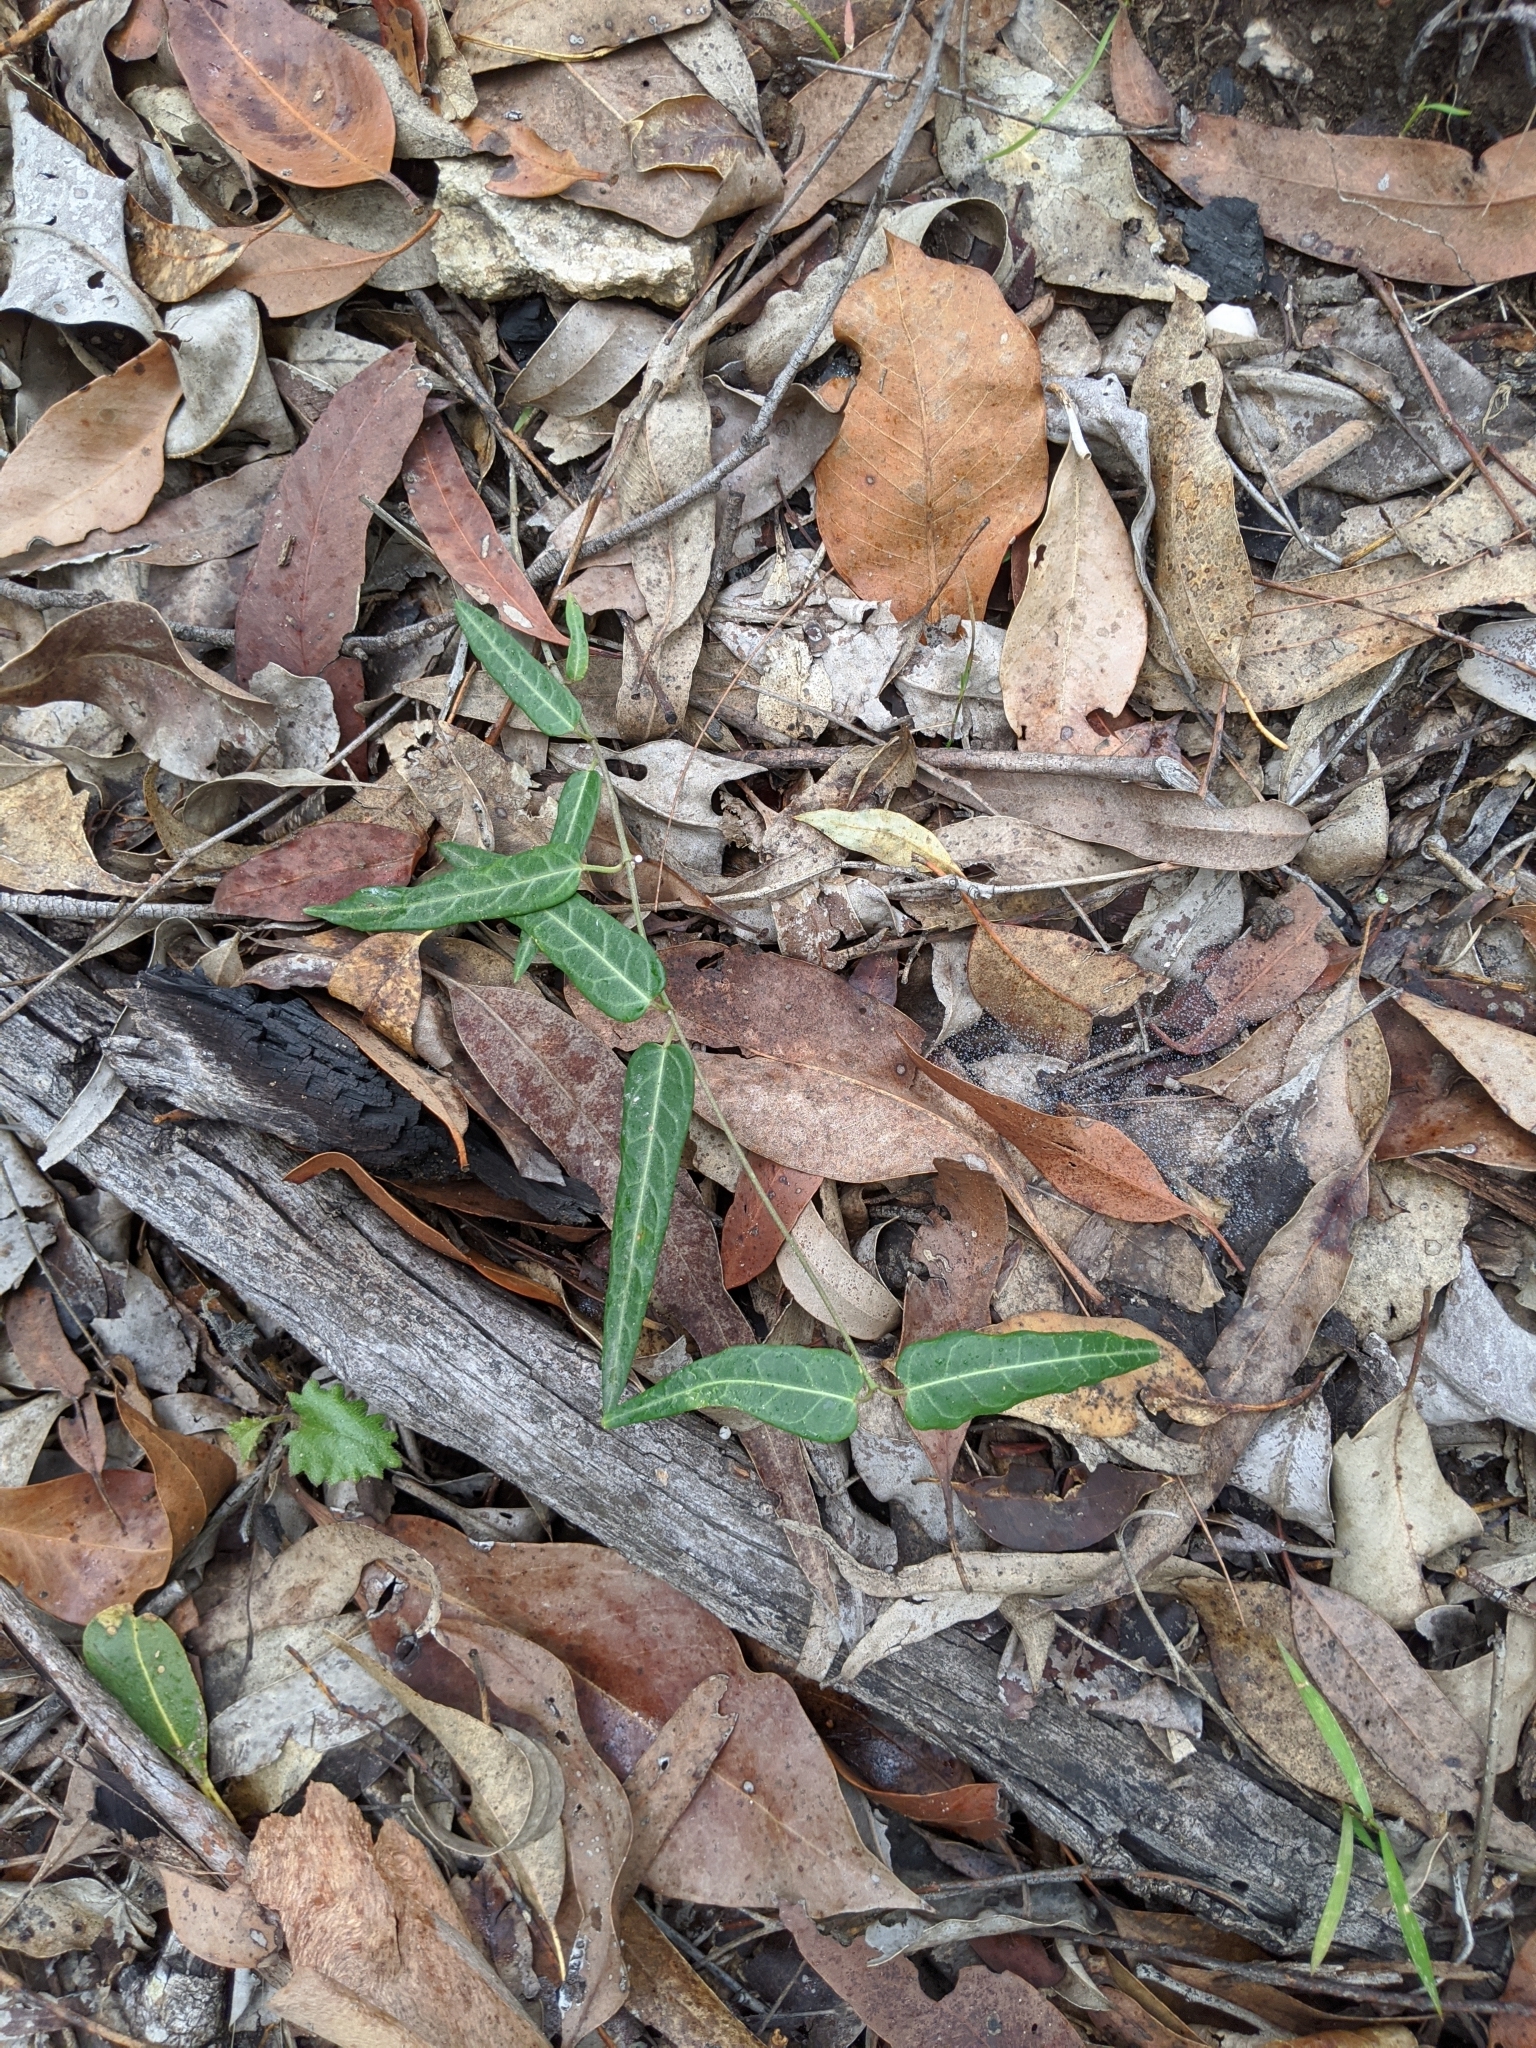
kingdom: Plantae
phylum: Tracheophyta
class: Magnoliopsida
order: Gentianales
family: Apocynaceae
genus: Leichhardtia
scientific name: Leichhardtia coronata
